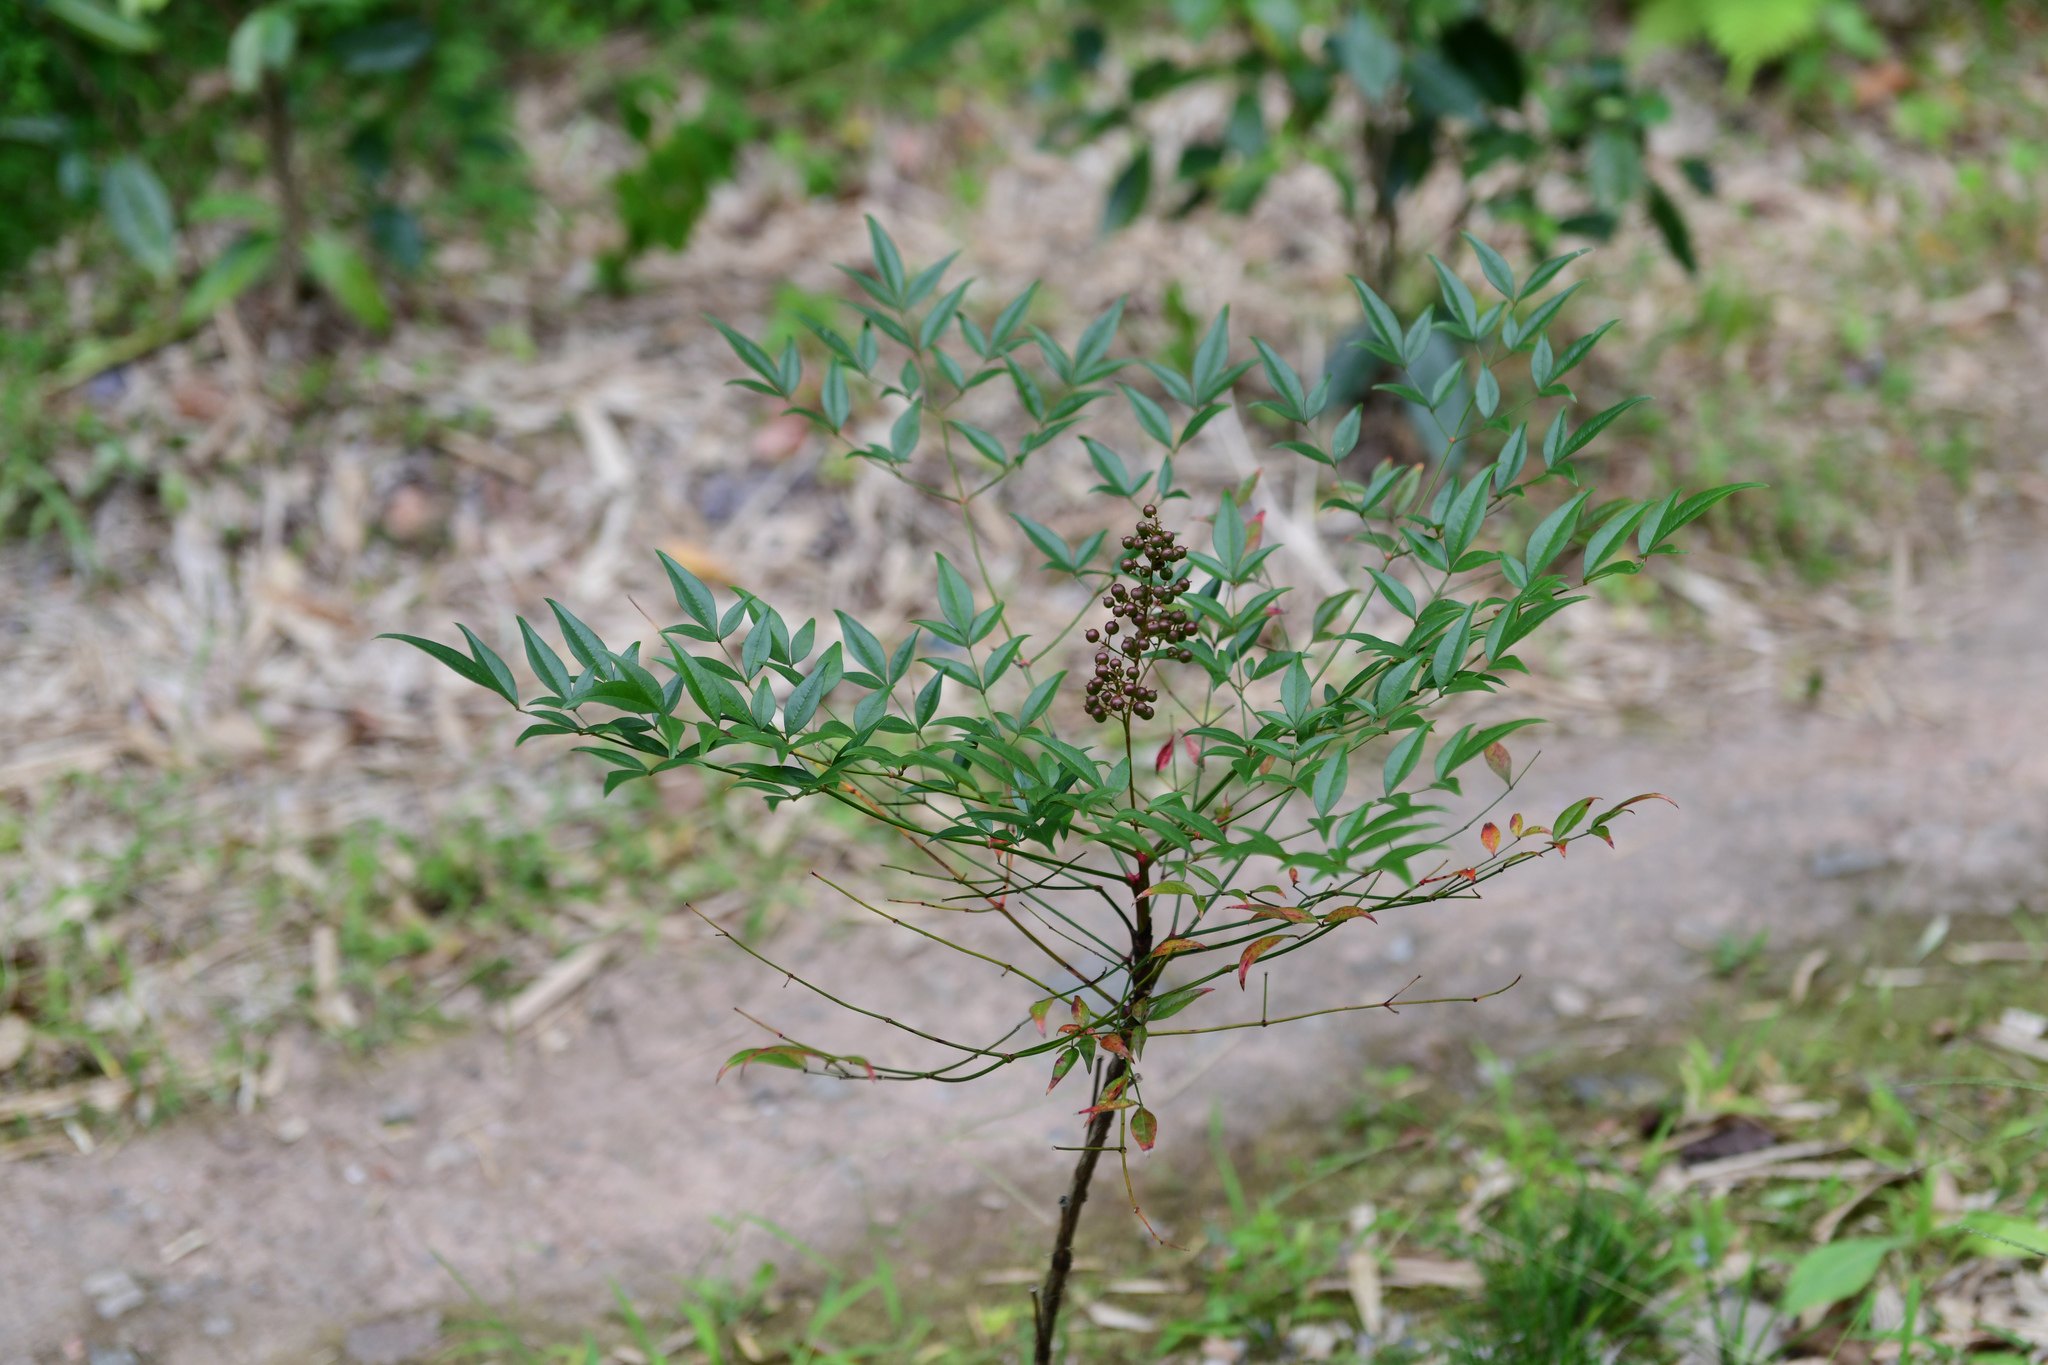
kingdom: Plantae
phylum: Tracheophyta
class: Magnoliopsida
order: Ranunculales
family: Berberidaceae
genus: Nandina
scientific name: Nandina domestica
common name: Sacred bamboo
